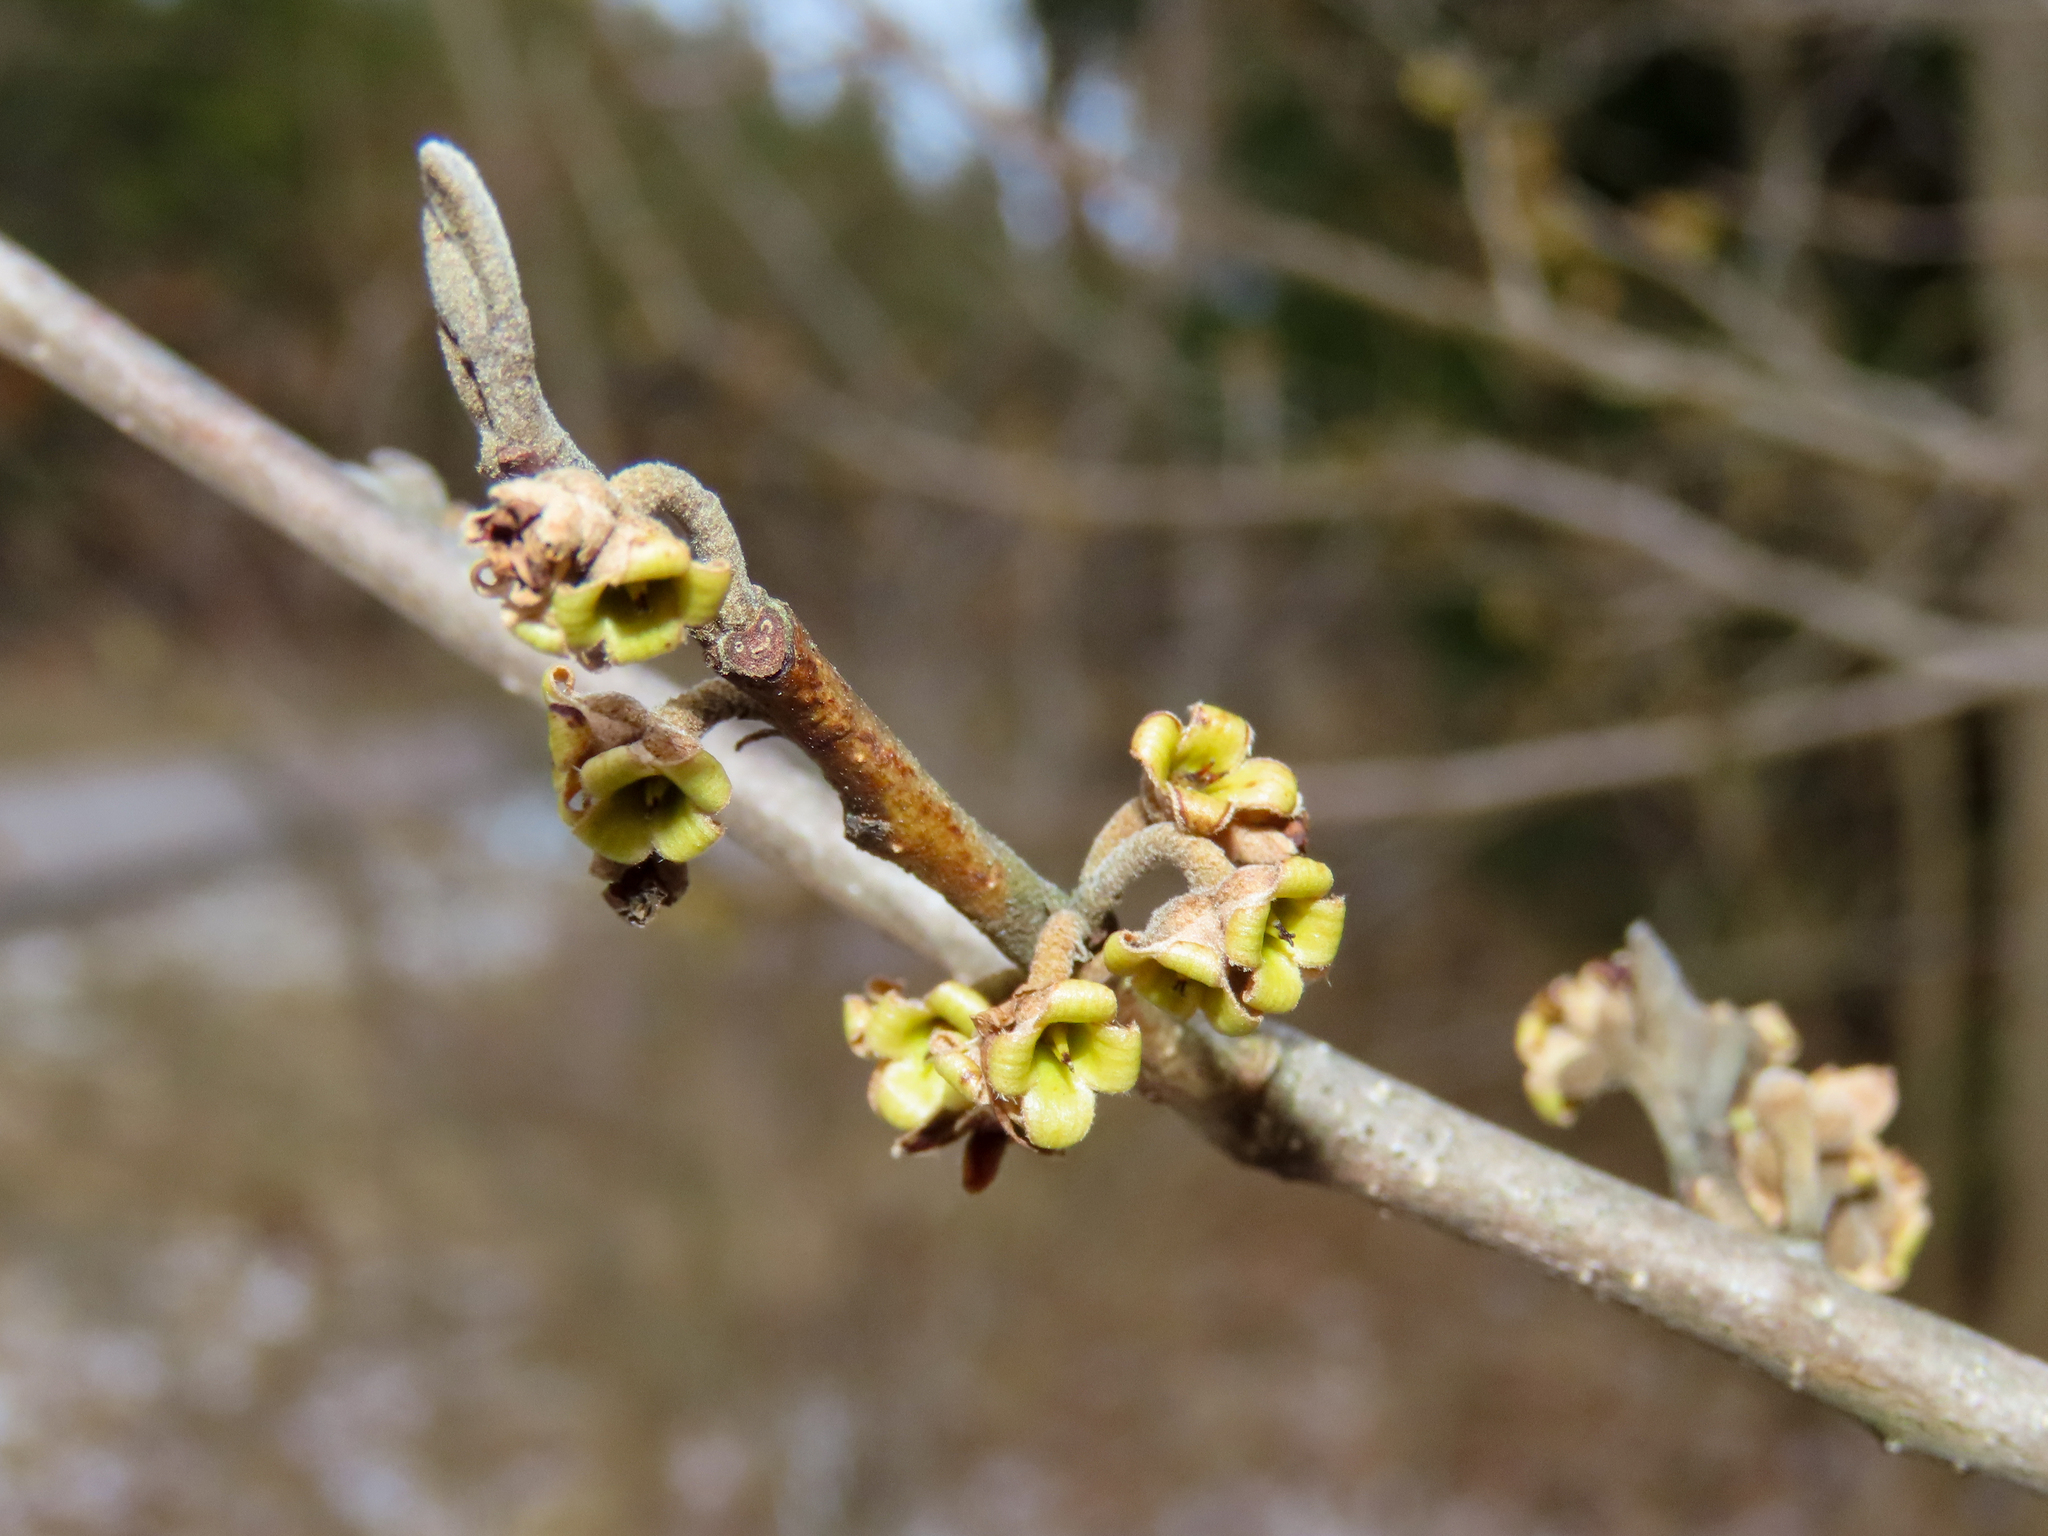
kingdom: Plantae
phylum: Tracheophyta
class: Magnoliopsida
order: Saxifragales
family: Hamamelidaceae
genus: Hamamelis
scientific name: Hamamelis virginiana
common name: Witch-hazel
